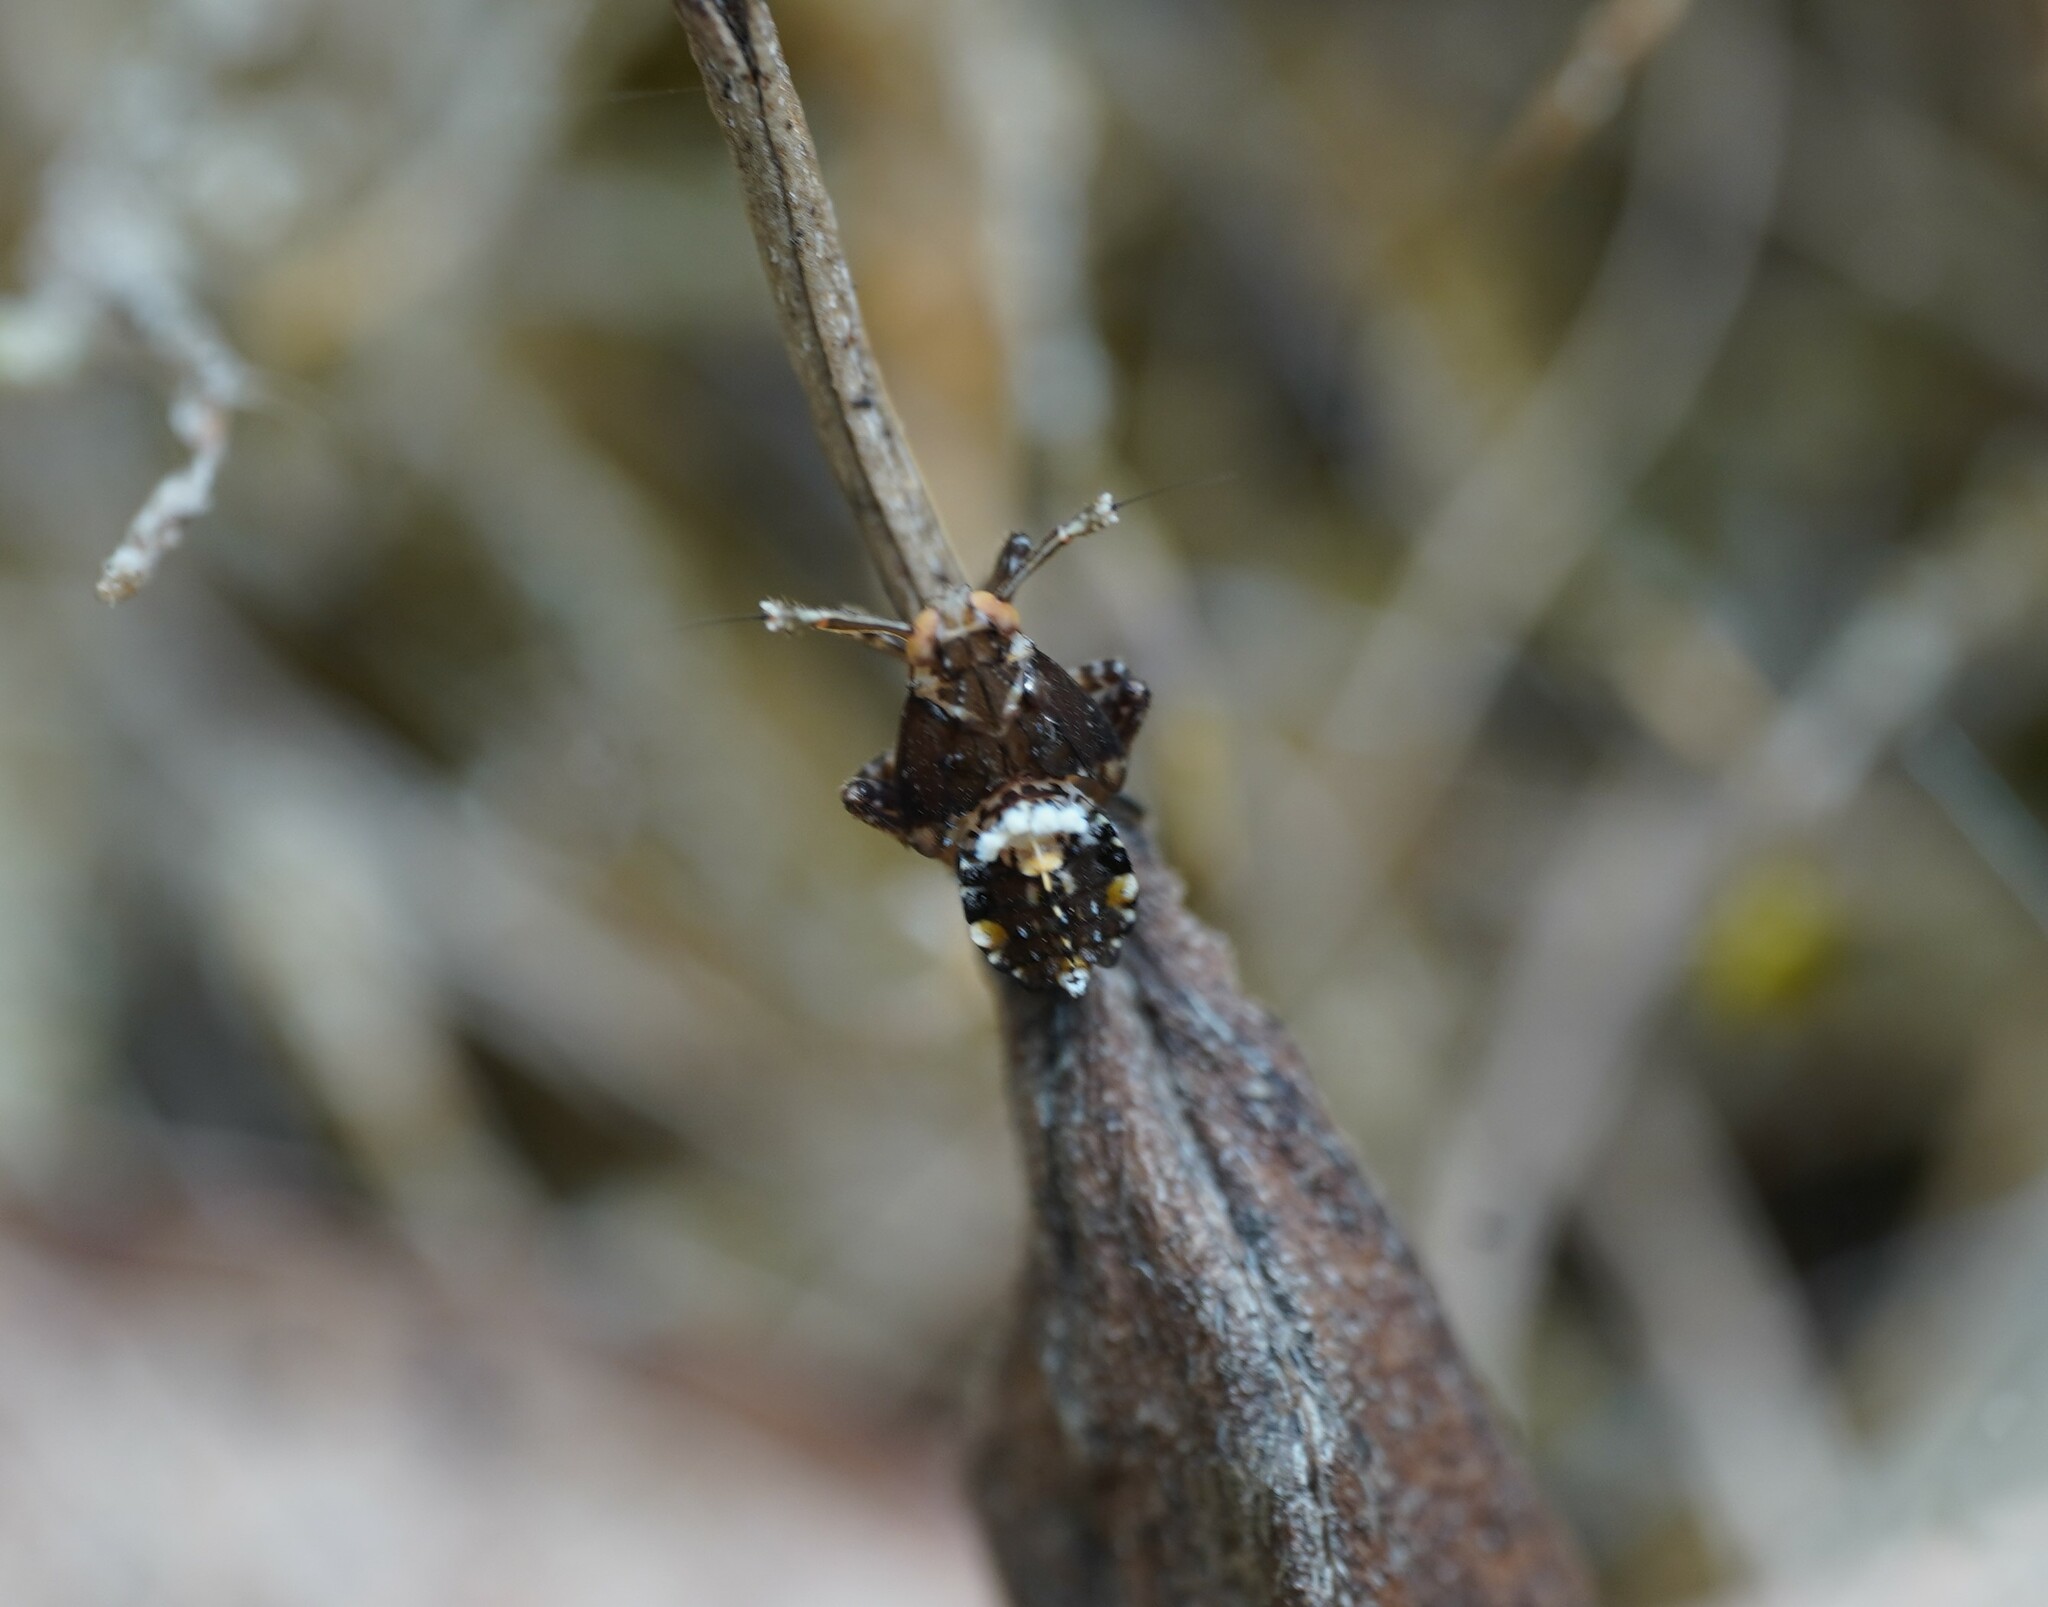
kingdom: Animalia
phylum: Arthropoda
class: Insecta
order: Hemiptera
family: Delphacidae
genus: Asiraca
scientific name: Asiraca clavicornis
